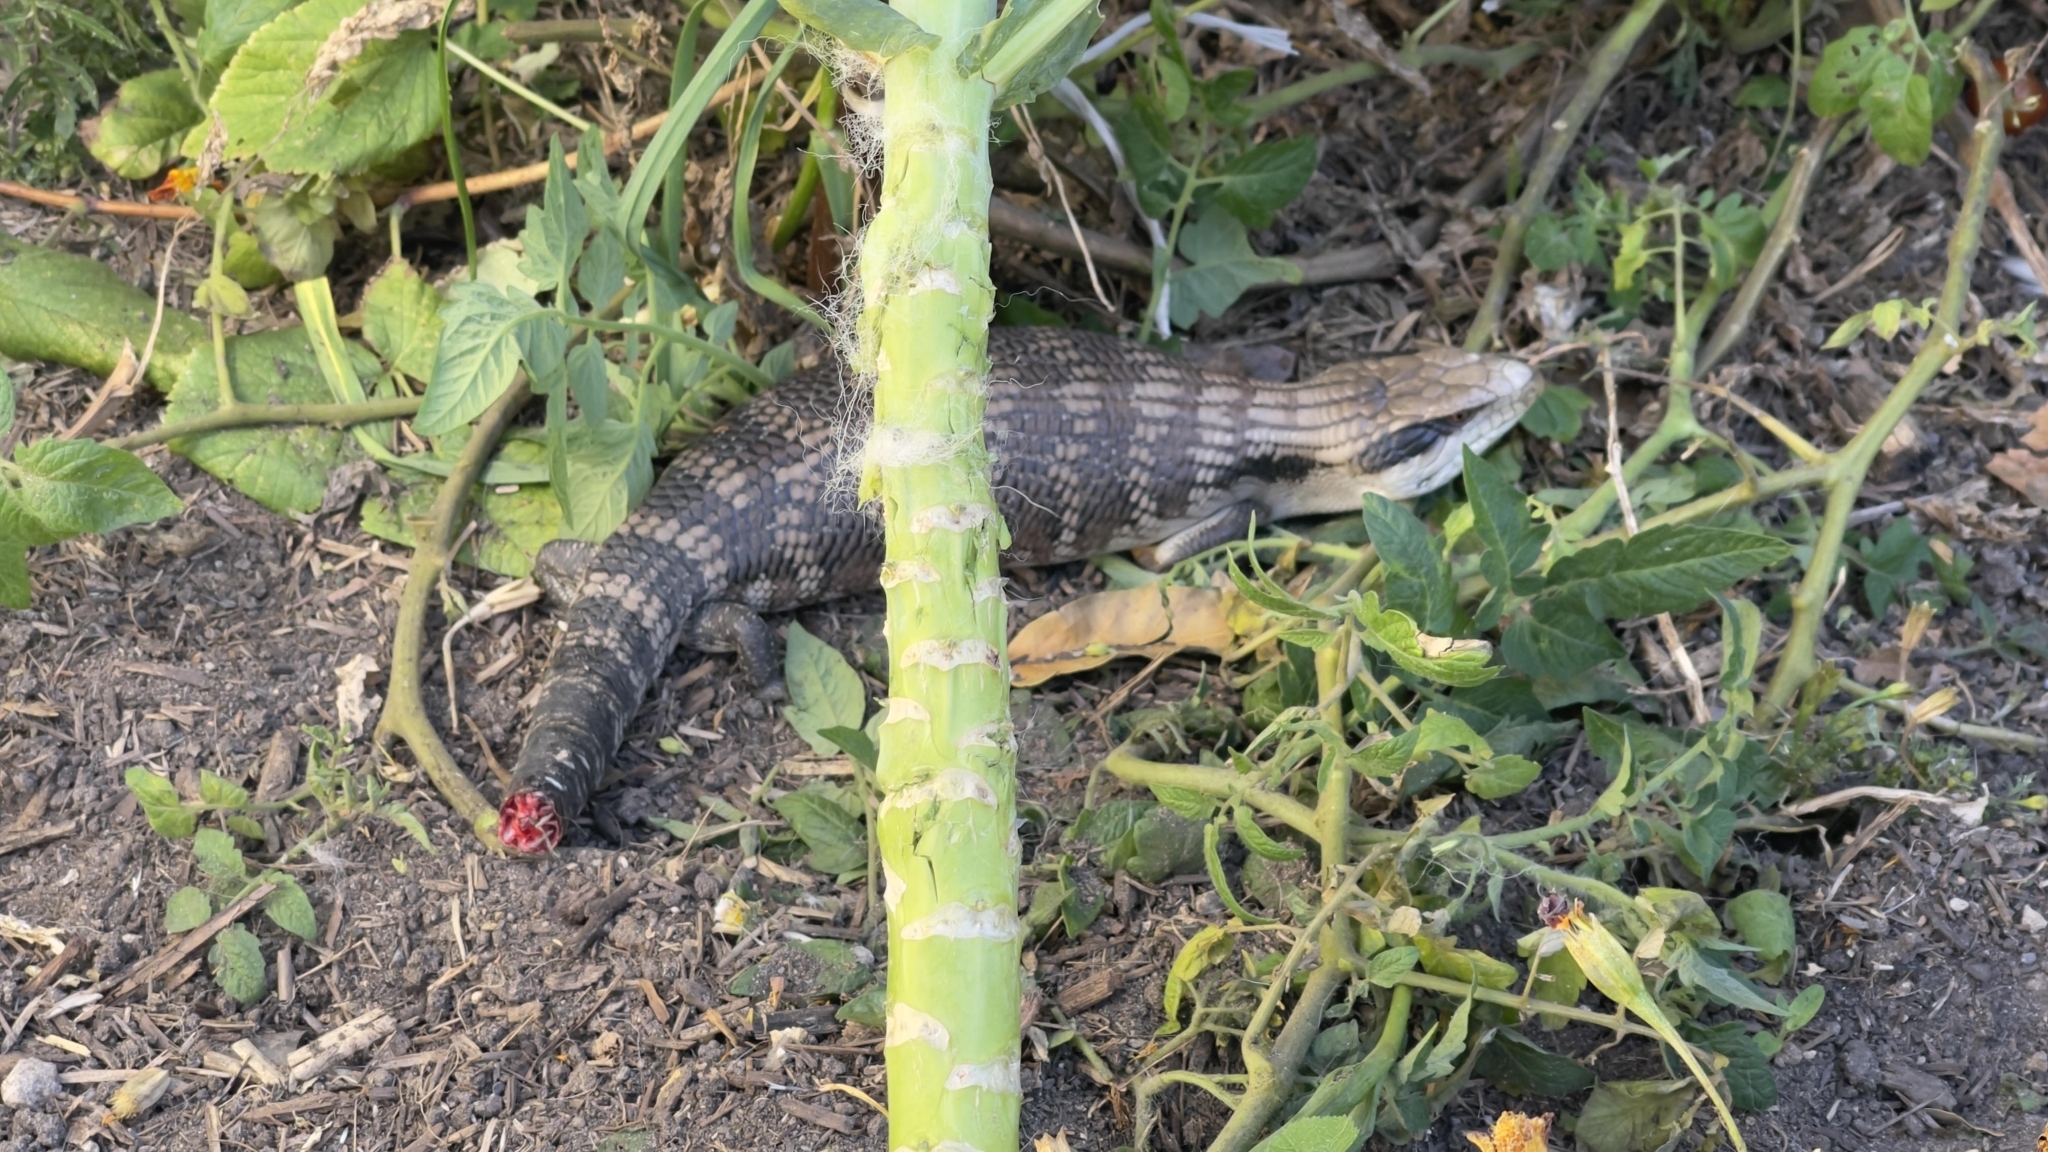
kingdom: Animalia
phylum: Chordata
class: Squamata
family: Scincidae
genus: Tiliqua
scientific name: Tiliqua scincoides
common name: Common bluetongue
